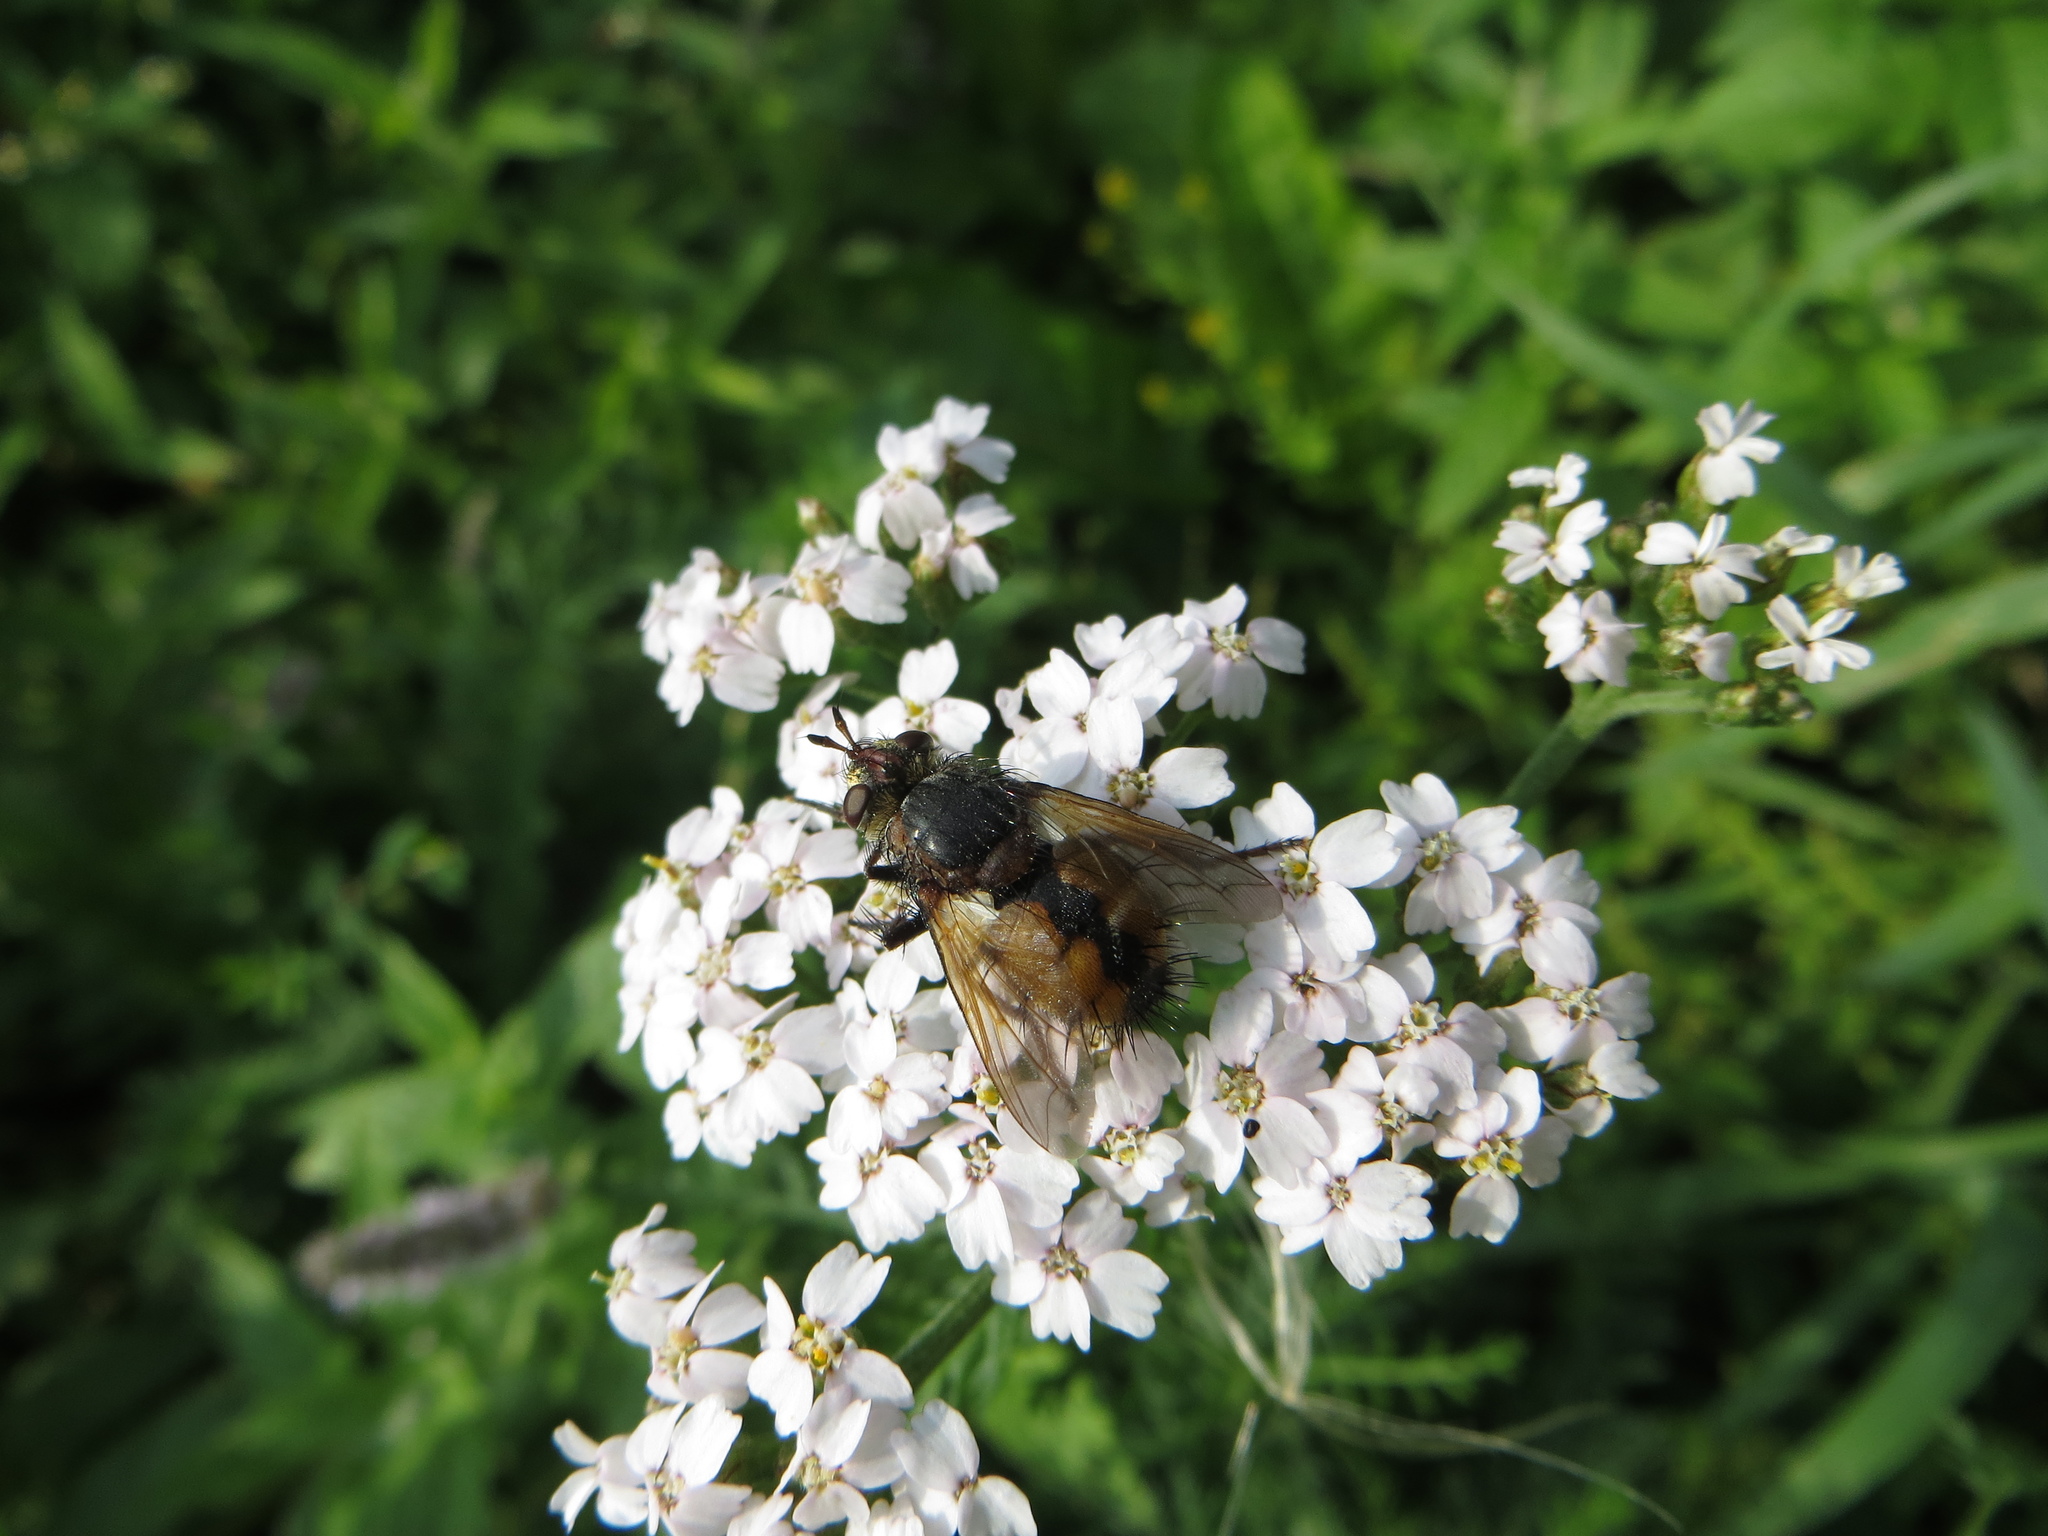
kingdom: Animalia
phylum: Arthropoda
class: Insecta
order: Diptera
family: Tachinidae
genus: Tachina
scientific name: Tachina magnicornis
